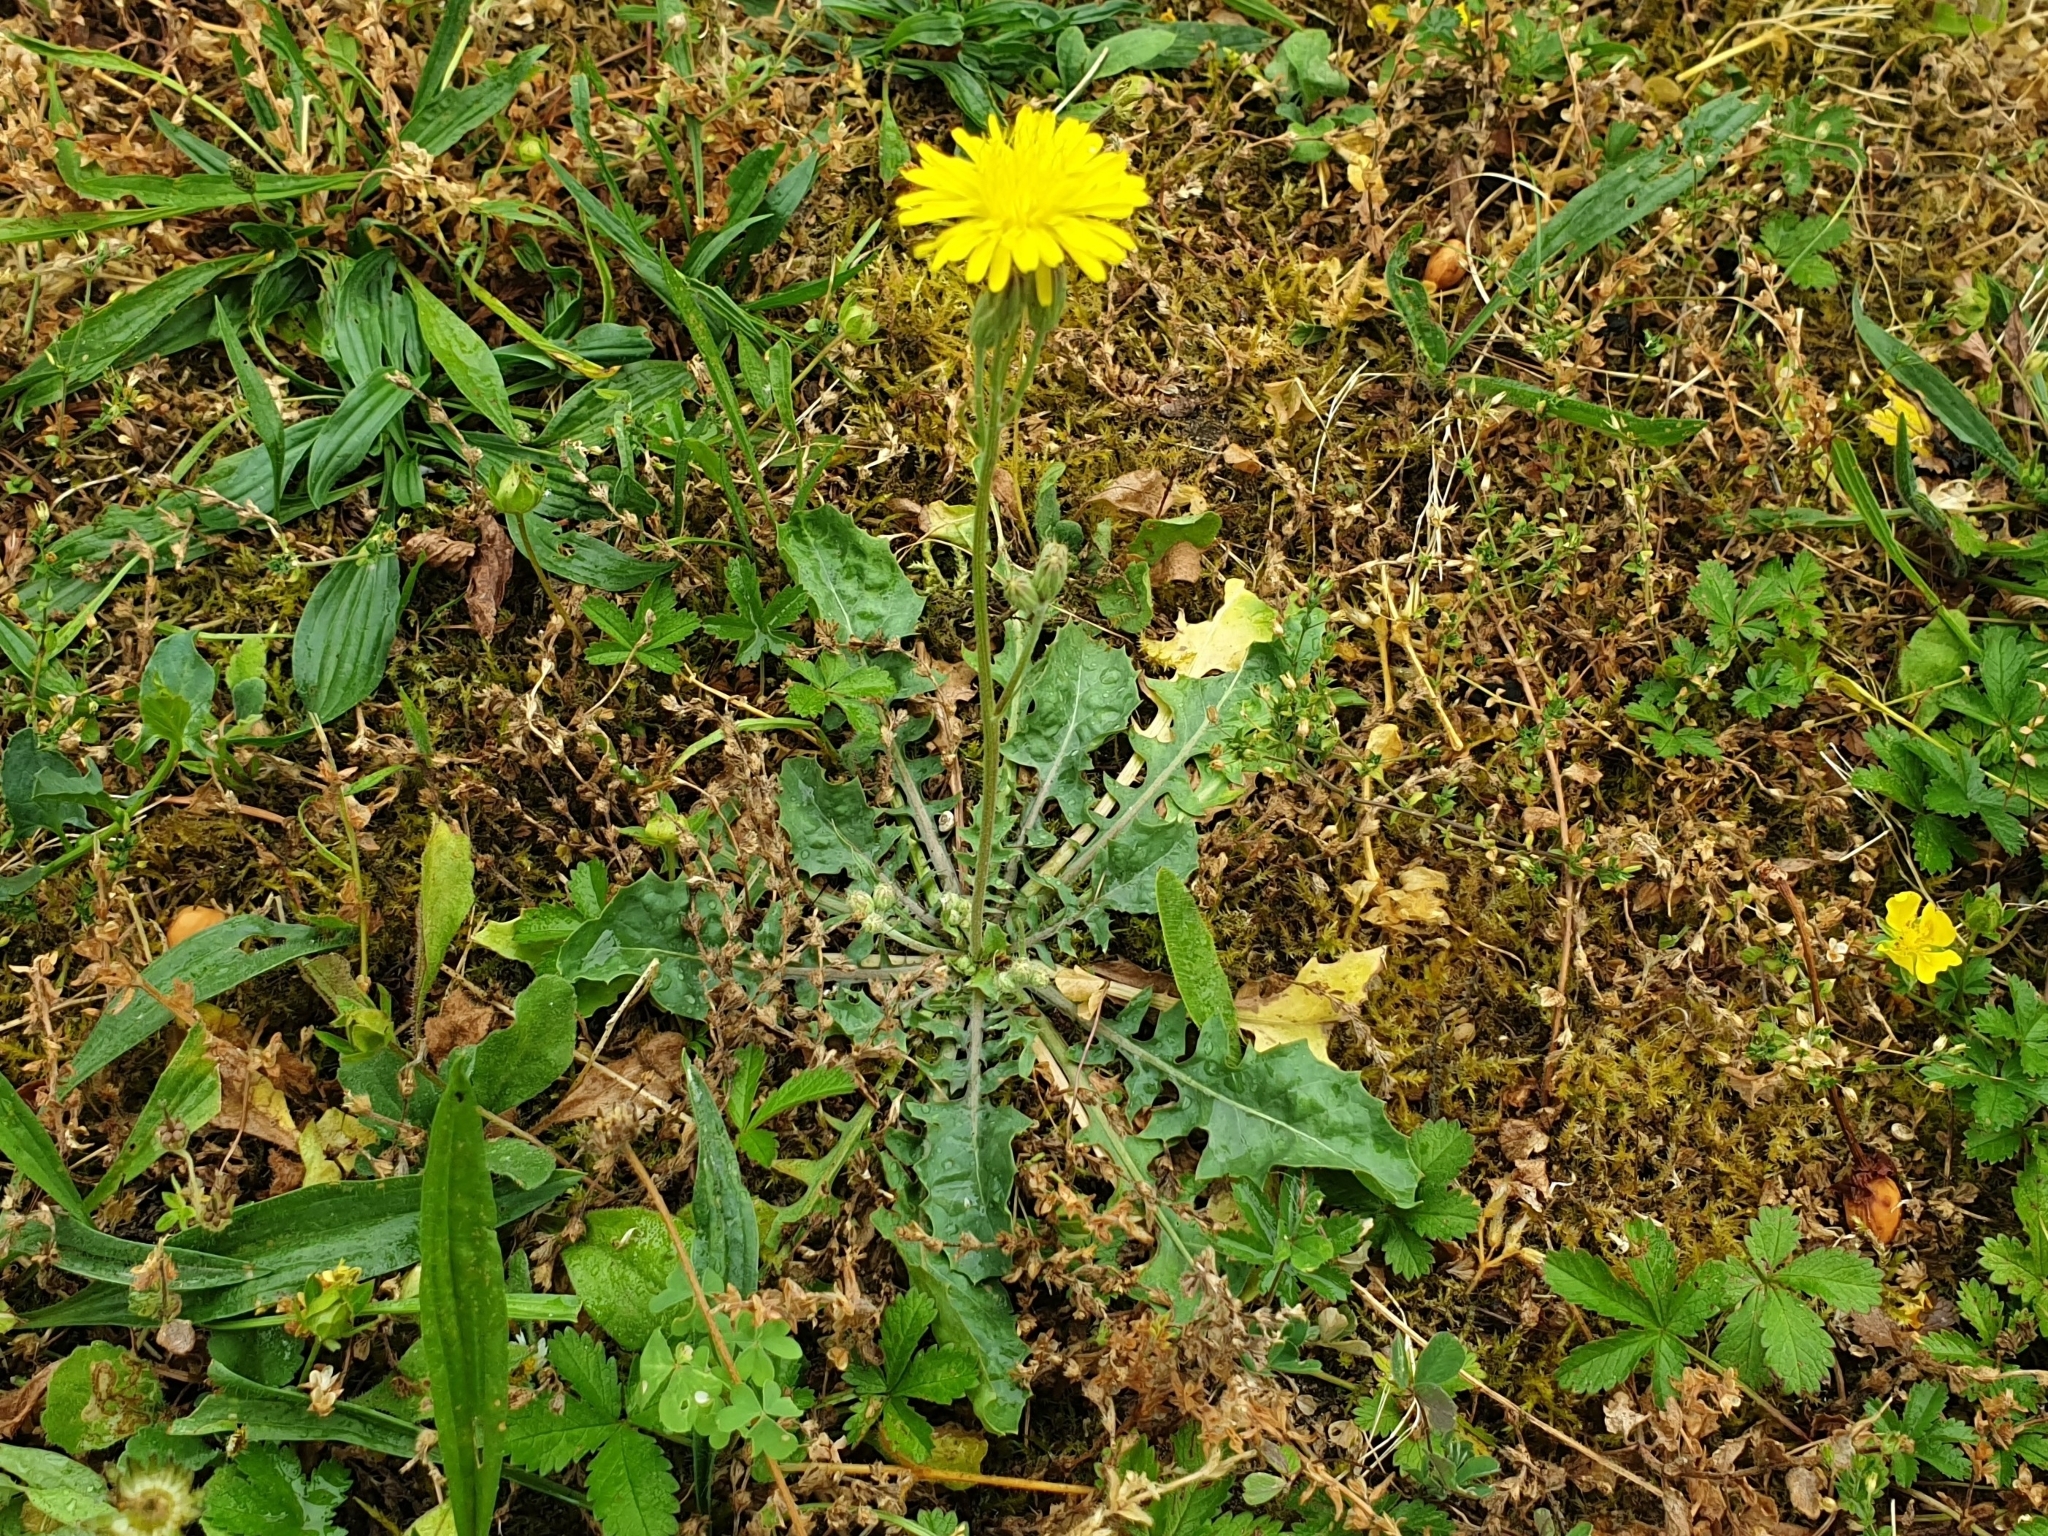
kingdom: Plantae
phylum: Tracheophyta
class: Magnoliopsida
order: Asterales
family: Asteraceae
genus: Crepis
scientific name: Crepis bursifolia
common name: Italian hawksbeard
